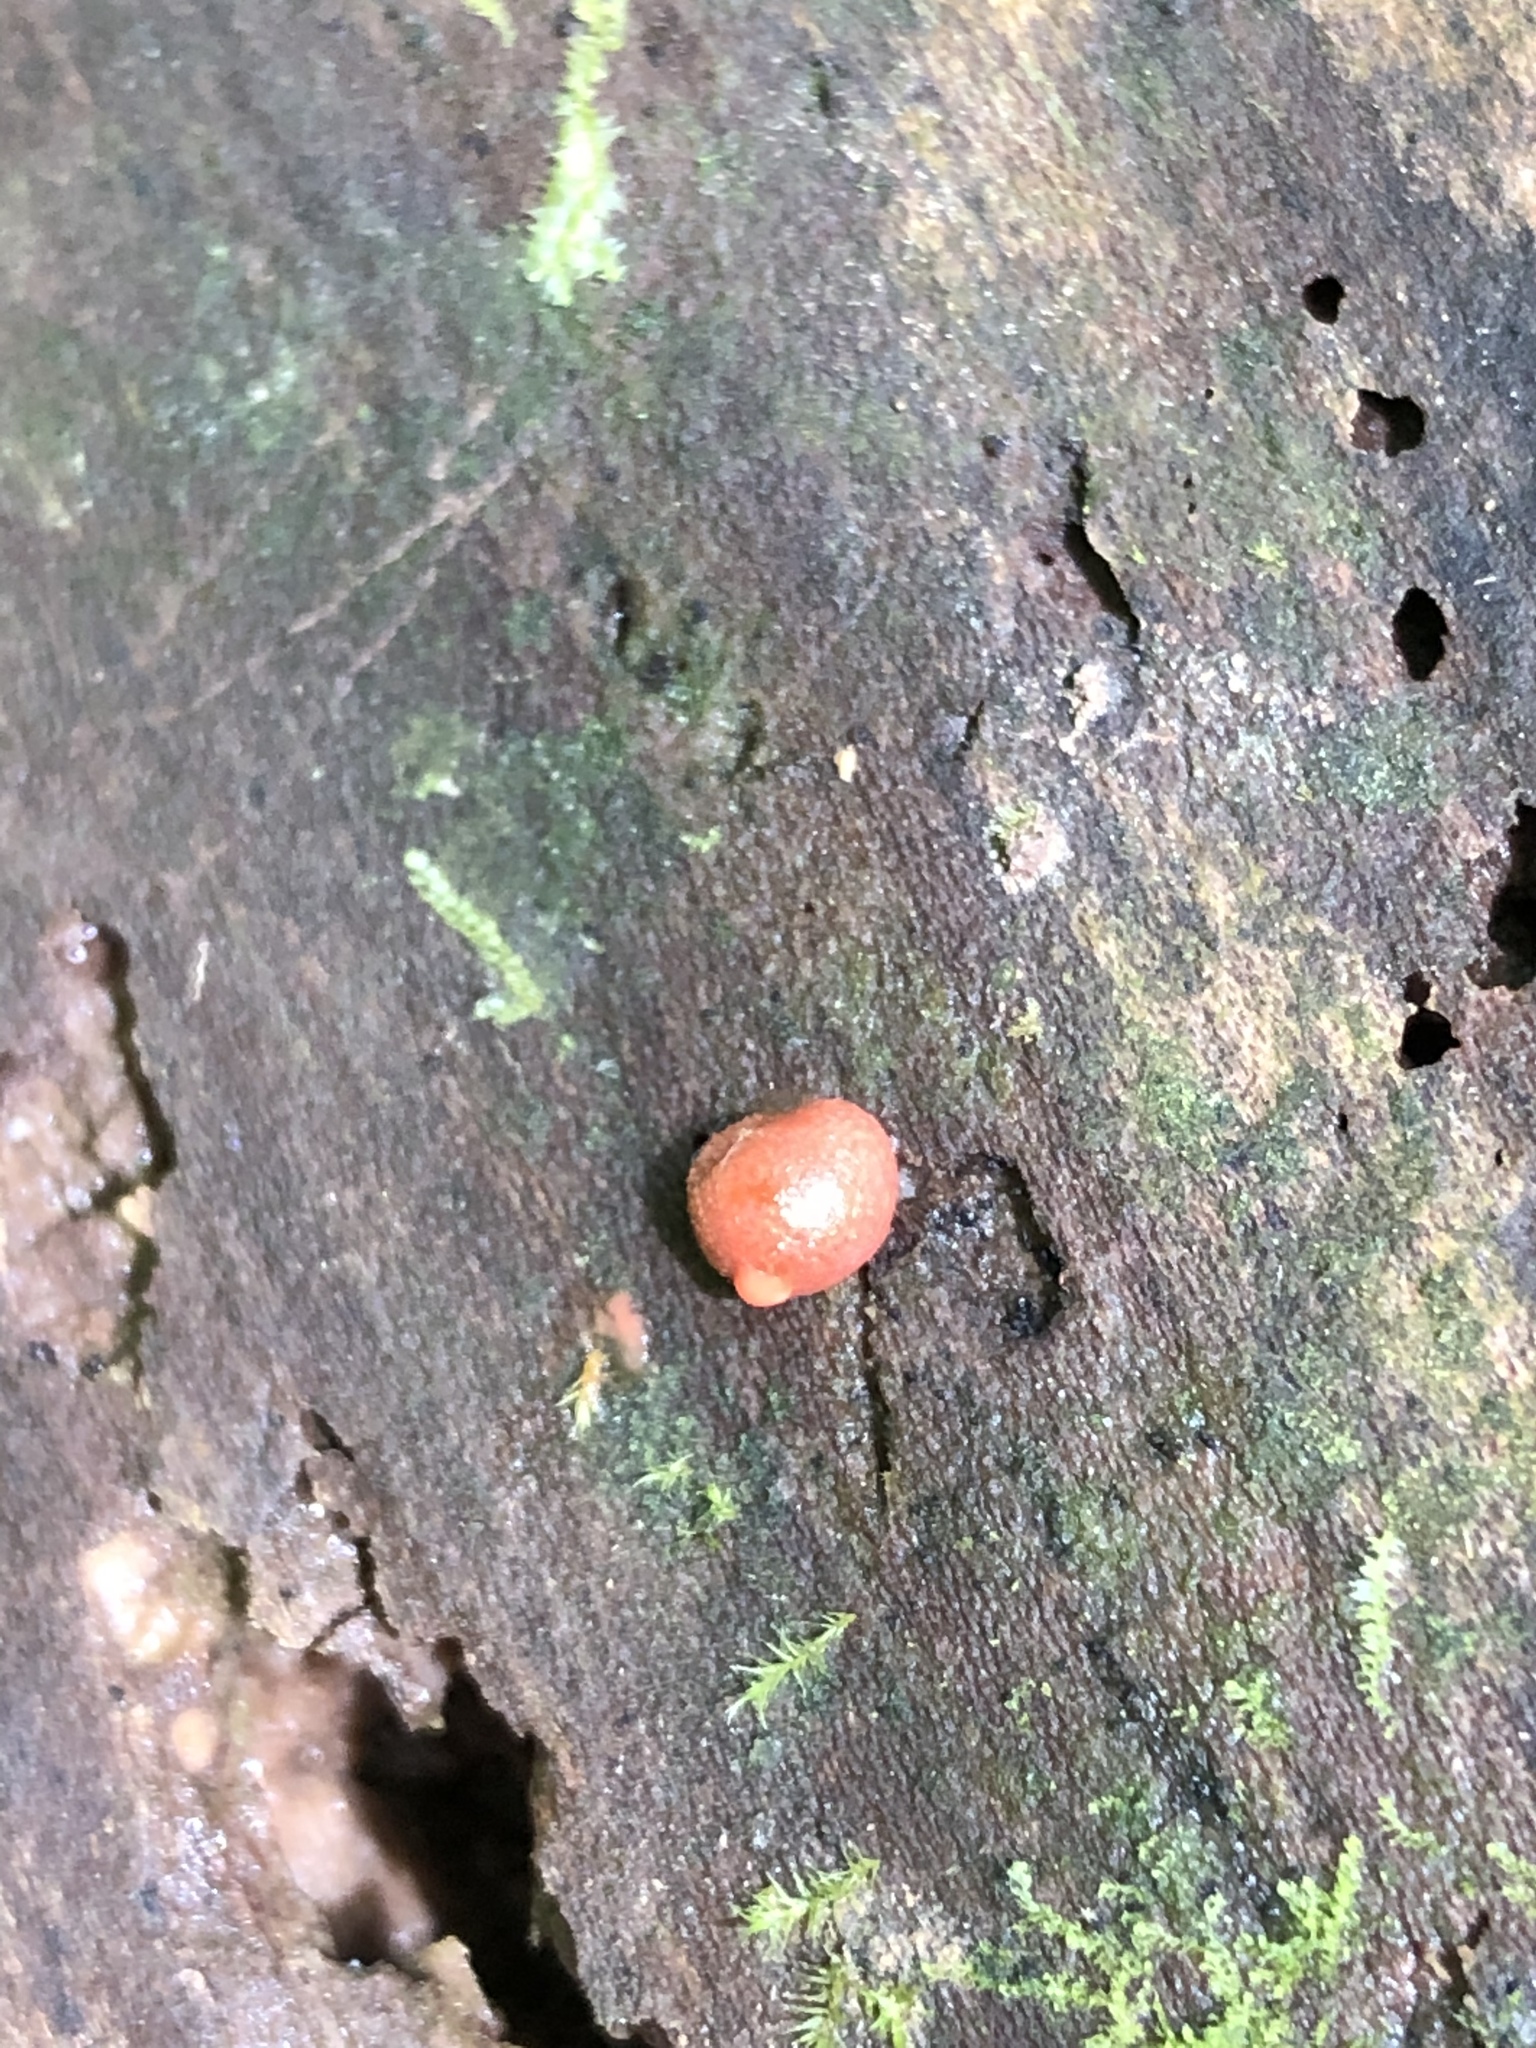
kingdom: Protozoa
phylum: Mycetozoa
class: Myxomycetes
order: Cribrariales
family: Tubiferaceae
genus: Lycogala
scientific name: Lycogala epidendrum
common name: Wolf's milk
